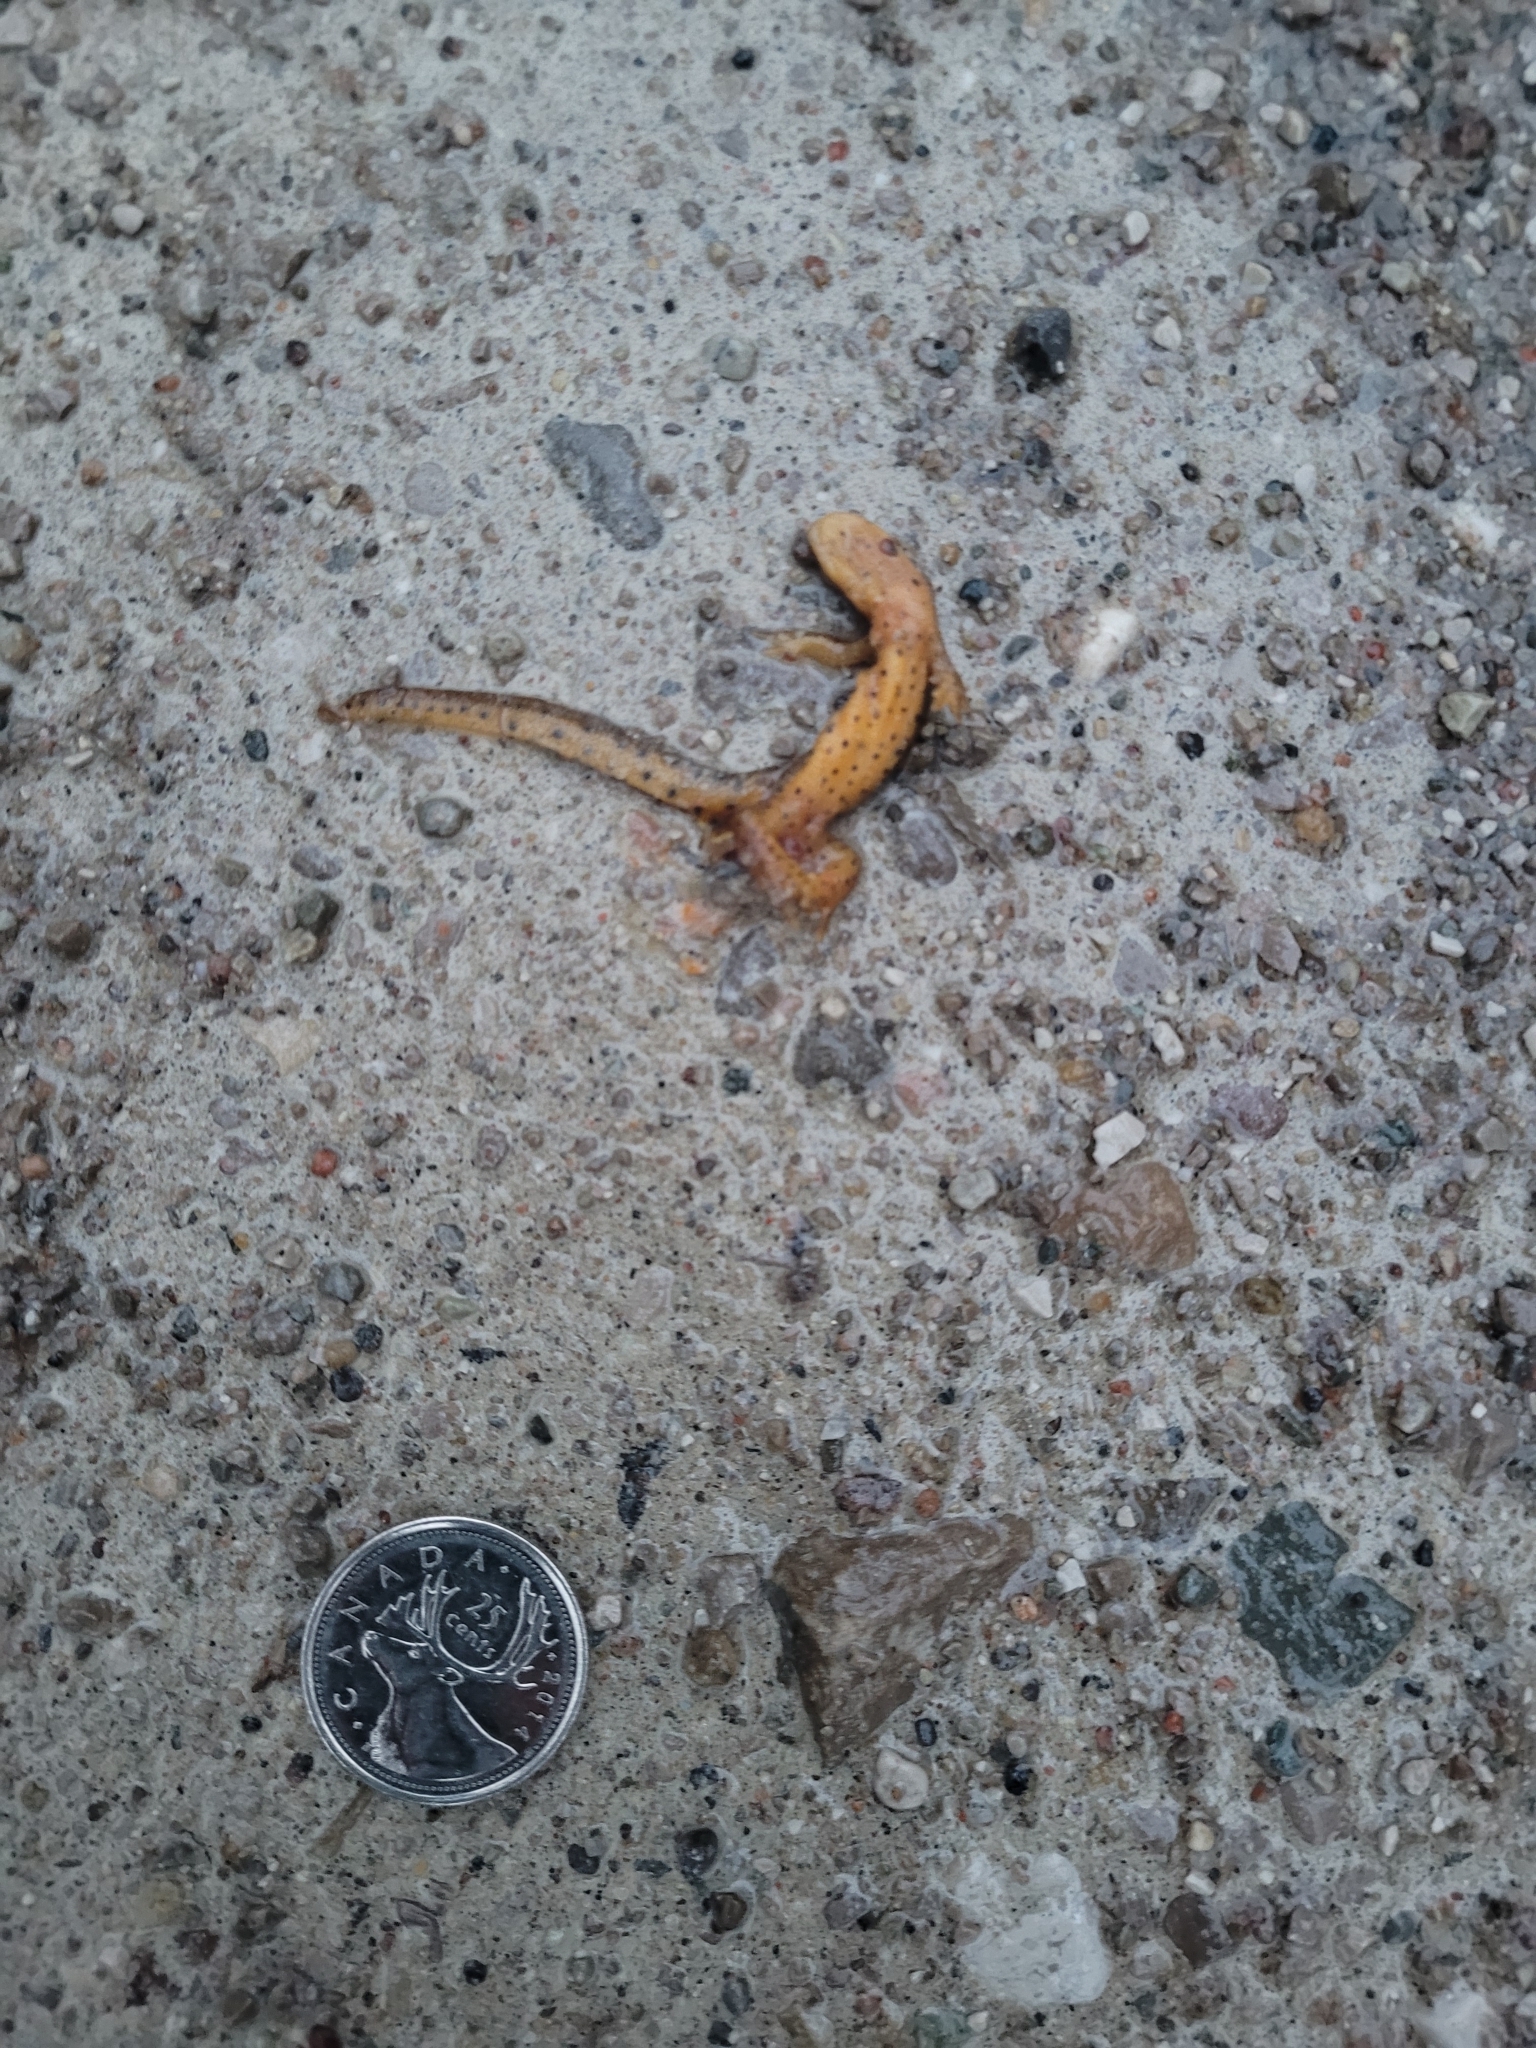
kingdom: Animalia
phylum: Chordata
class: Amphibia
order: Caudata
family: Salamandridae
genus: Notophthalmus
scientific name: Notophthalmus viridescens
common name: Eastern newt
